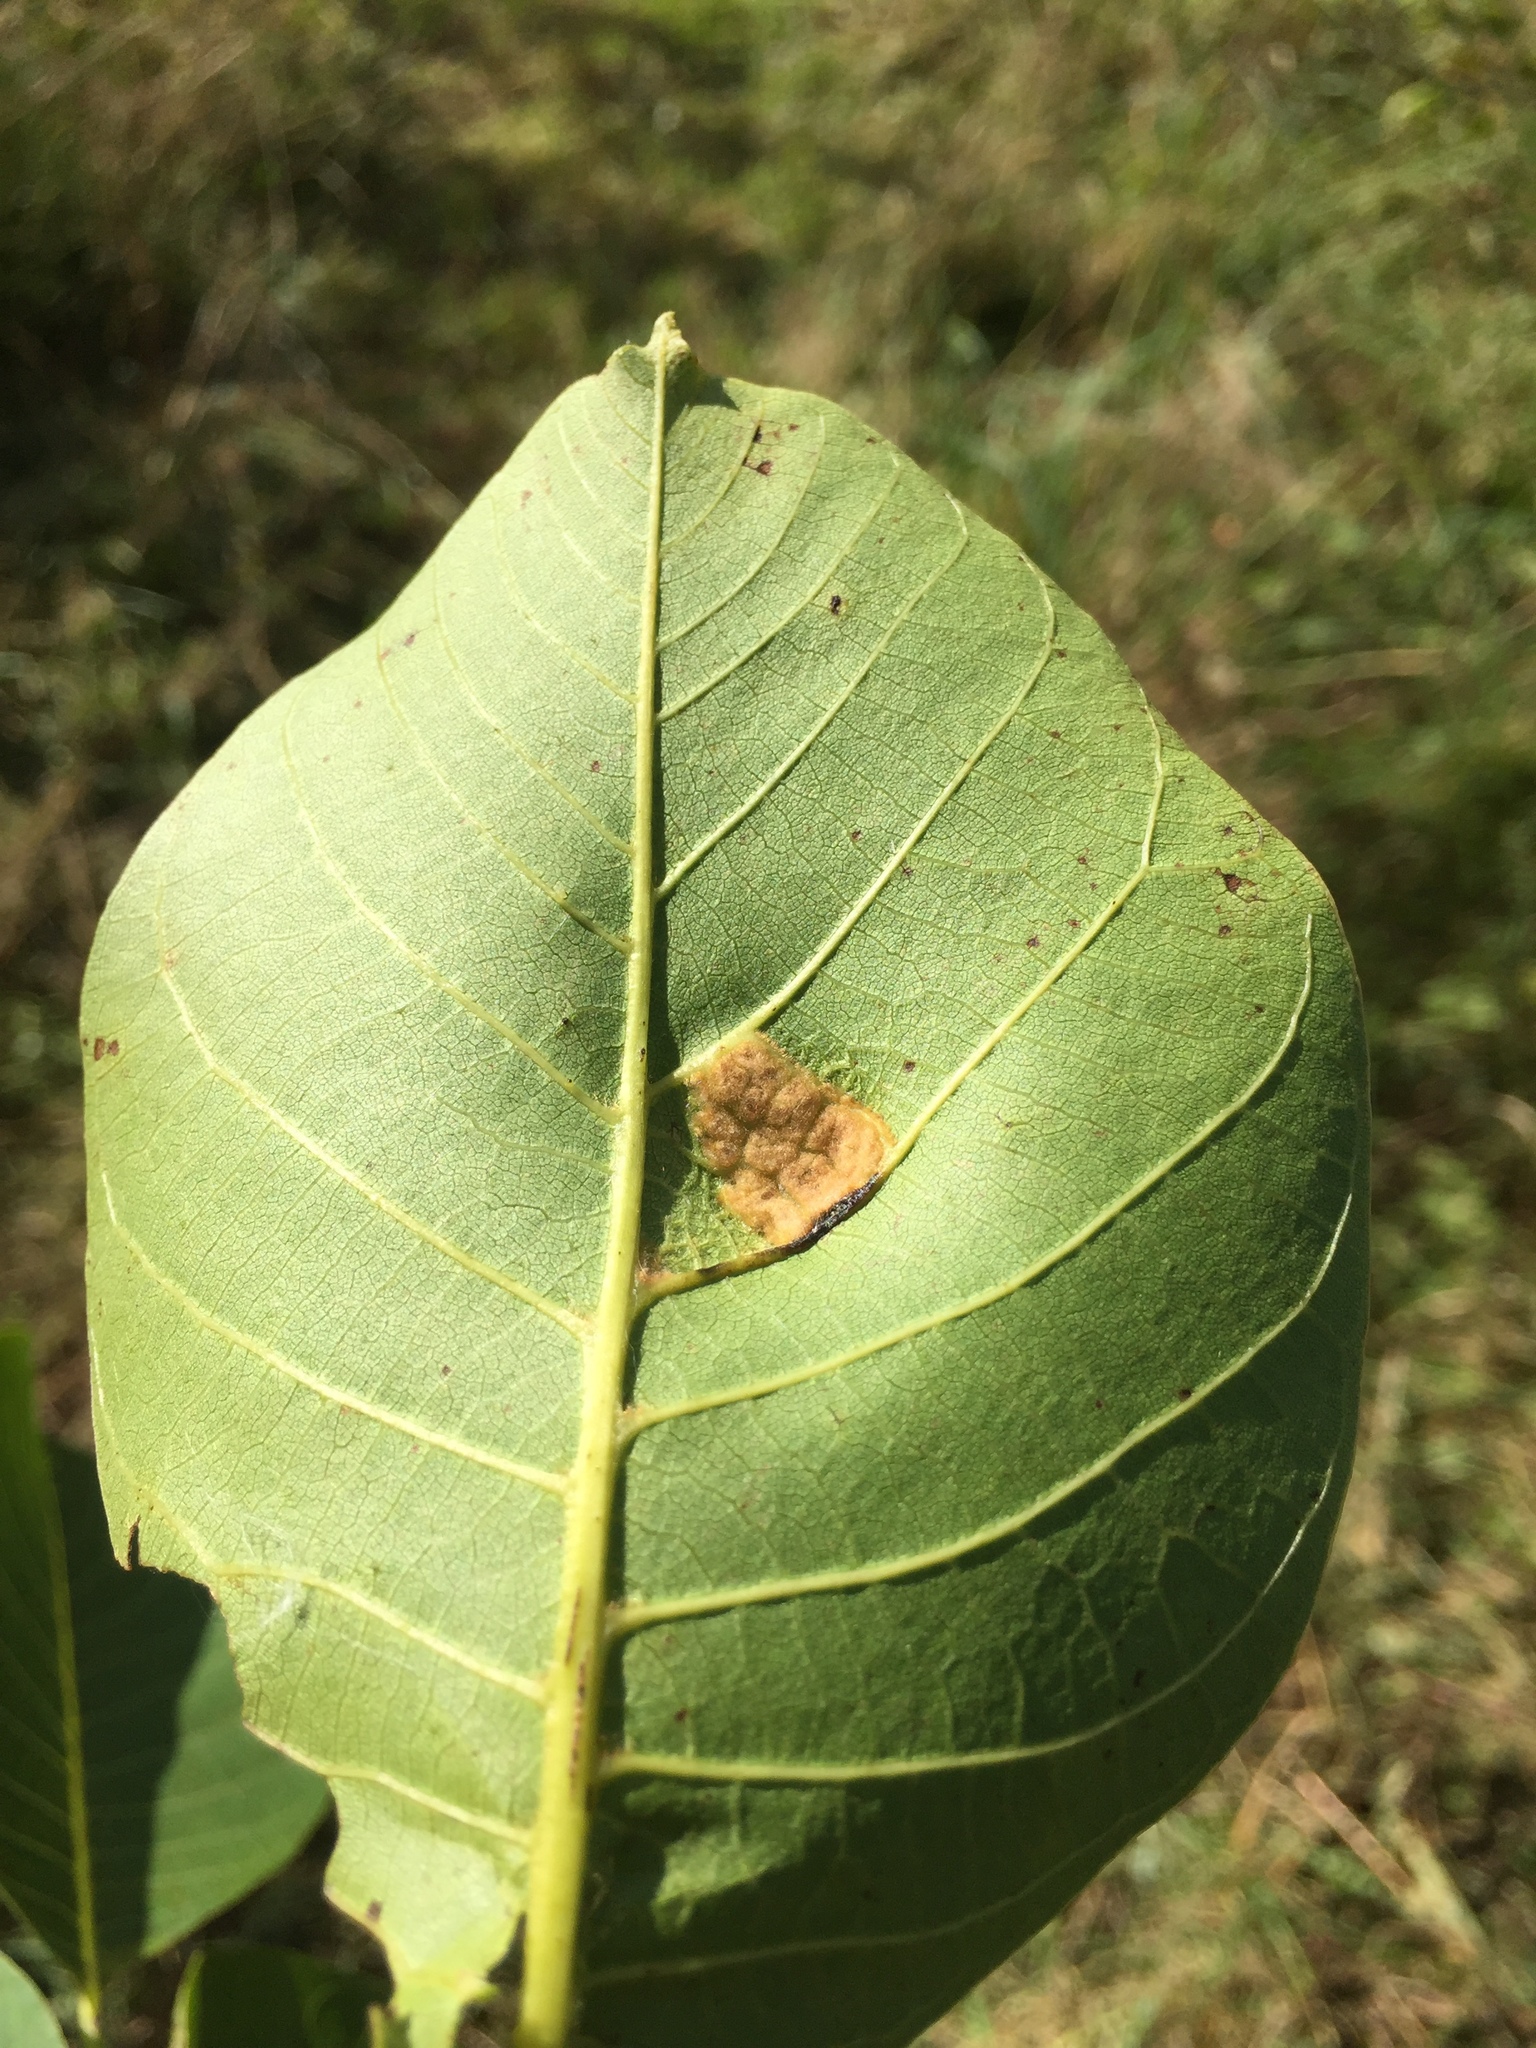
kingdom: Animalia
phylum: Arthropoda
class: Arachnida
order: Trombidiformes
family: Eriophyidae
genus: Aceria
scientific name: Aceria erinea
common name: Persian walnut erineum mite
